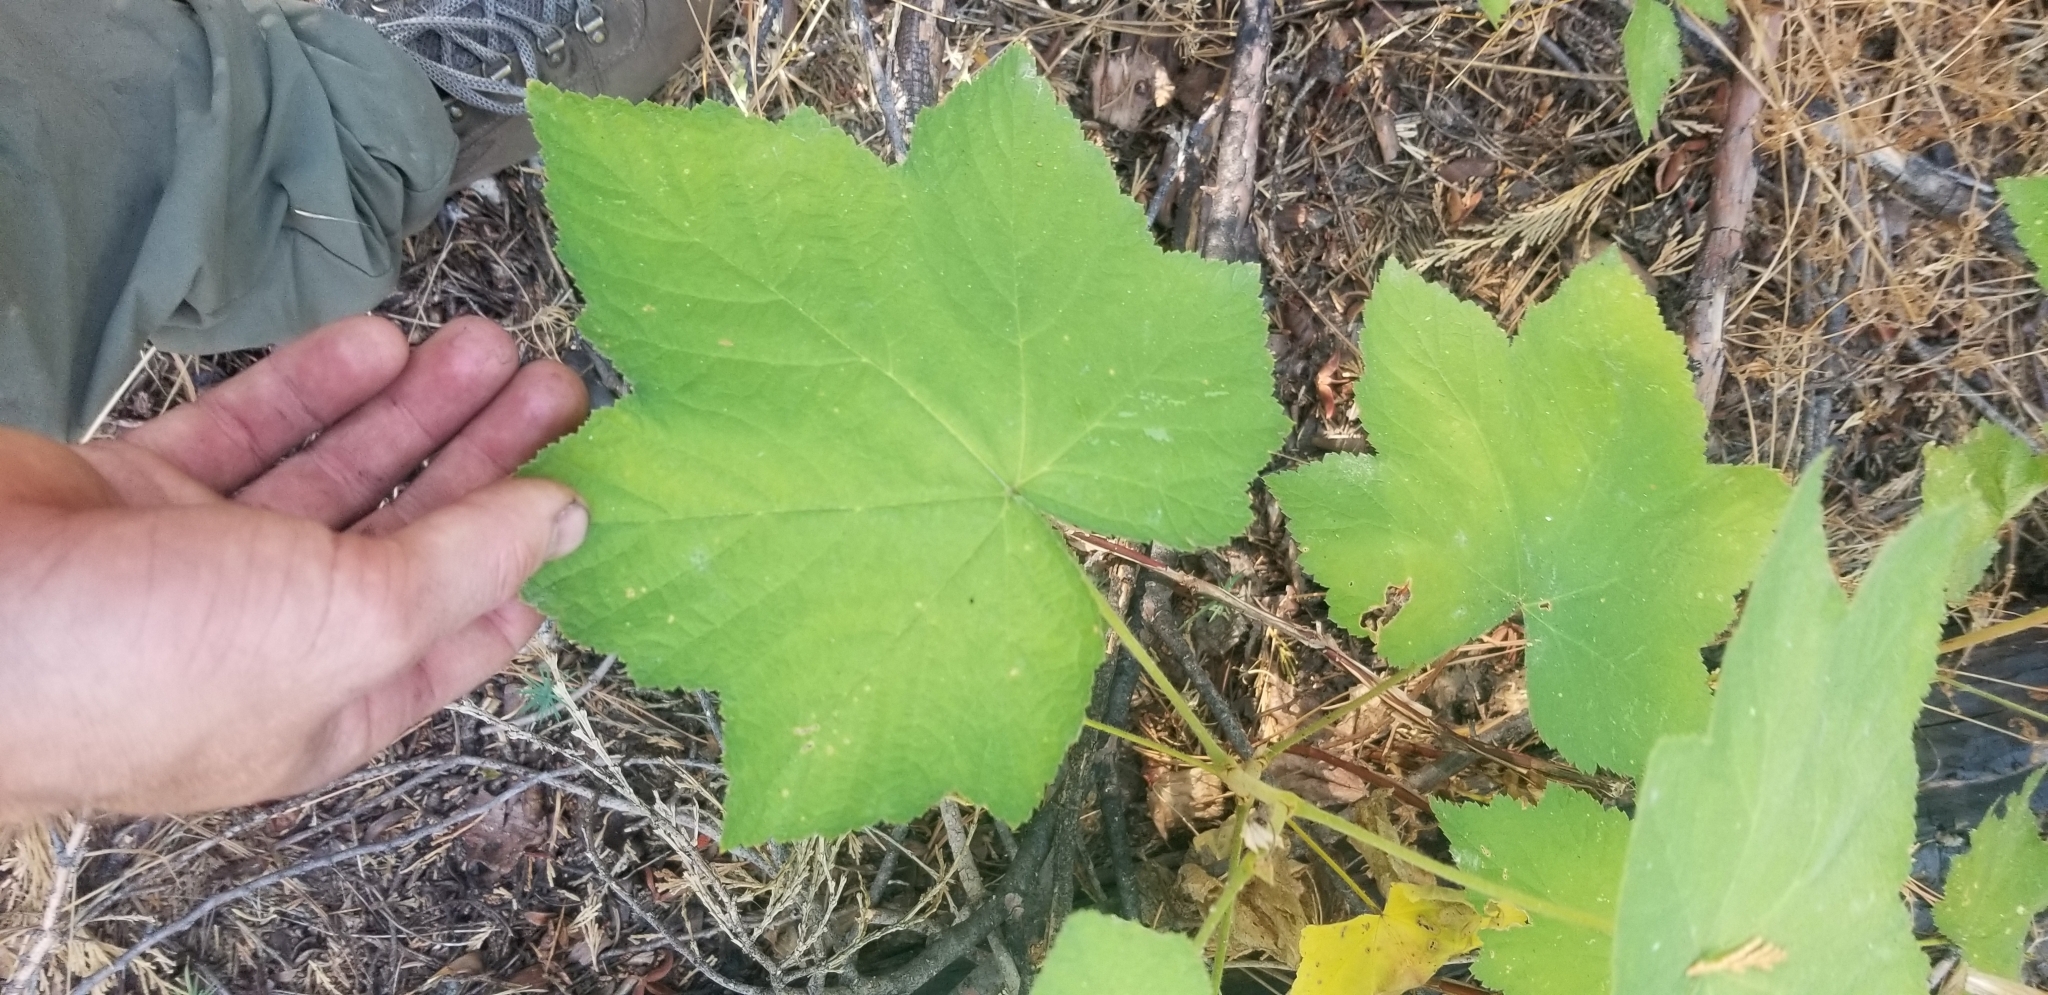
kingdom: Plantae
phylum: Tracheophyta
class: Magnoliopsida
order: Rosales
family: Rosaceae
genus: Rubus
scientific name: Rubus parviflorus
